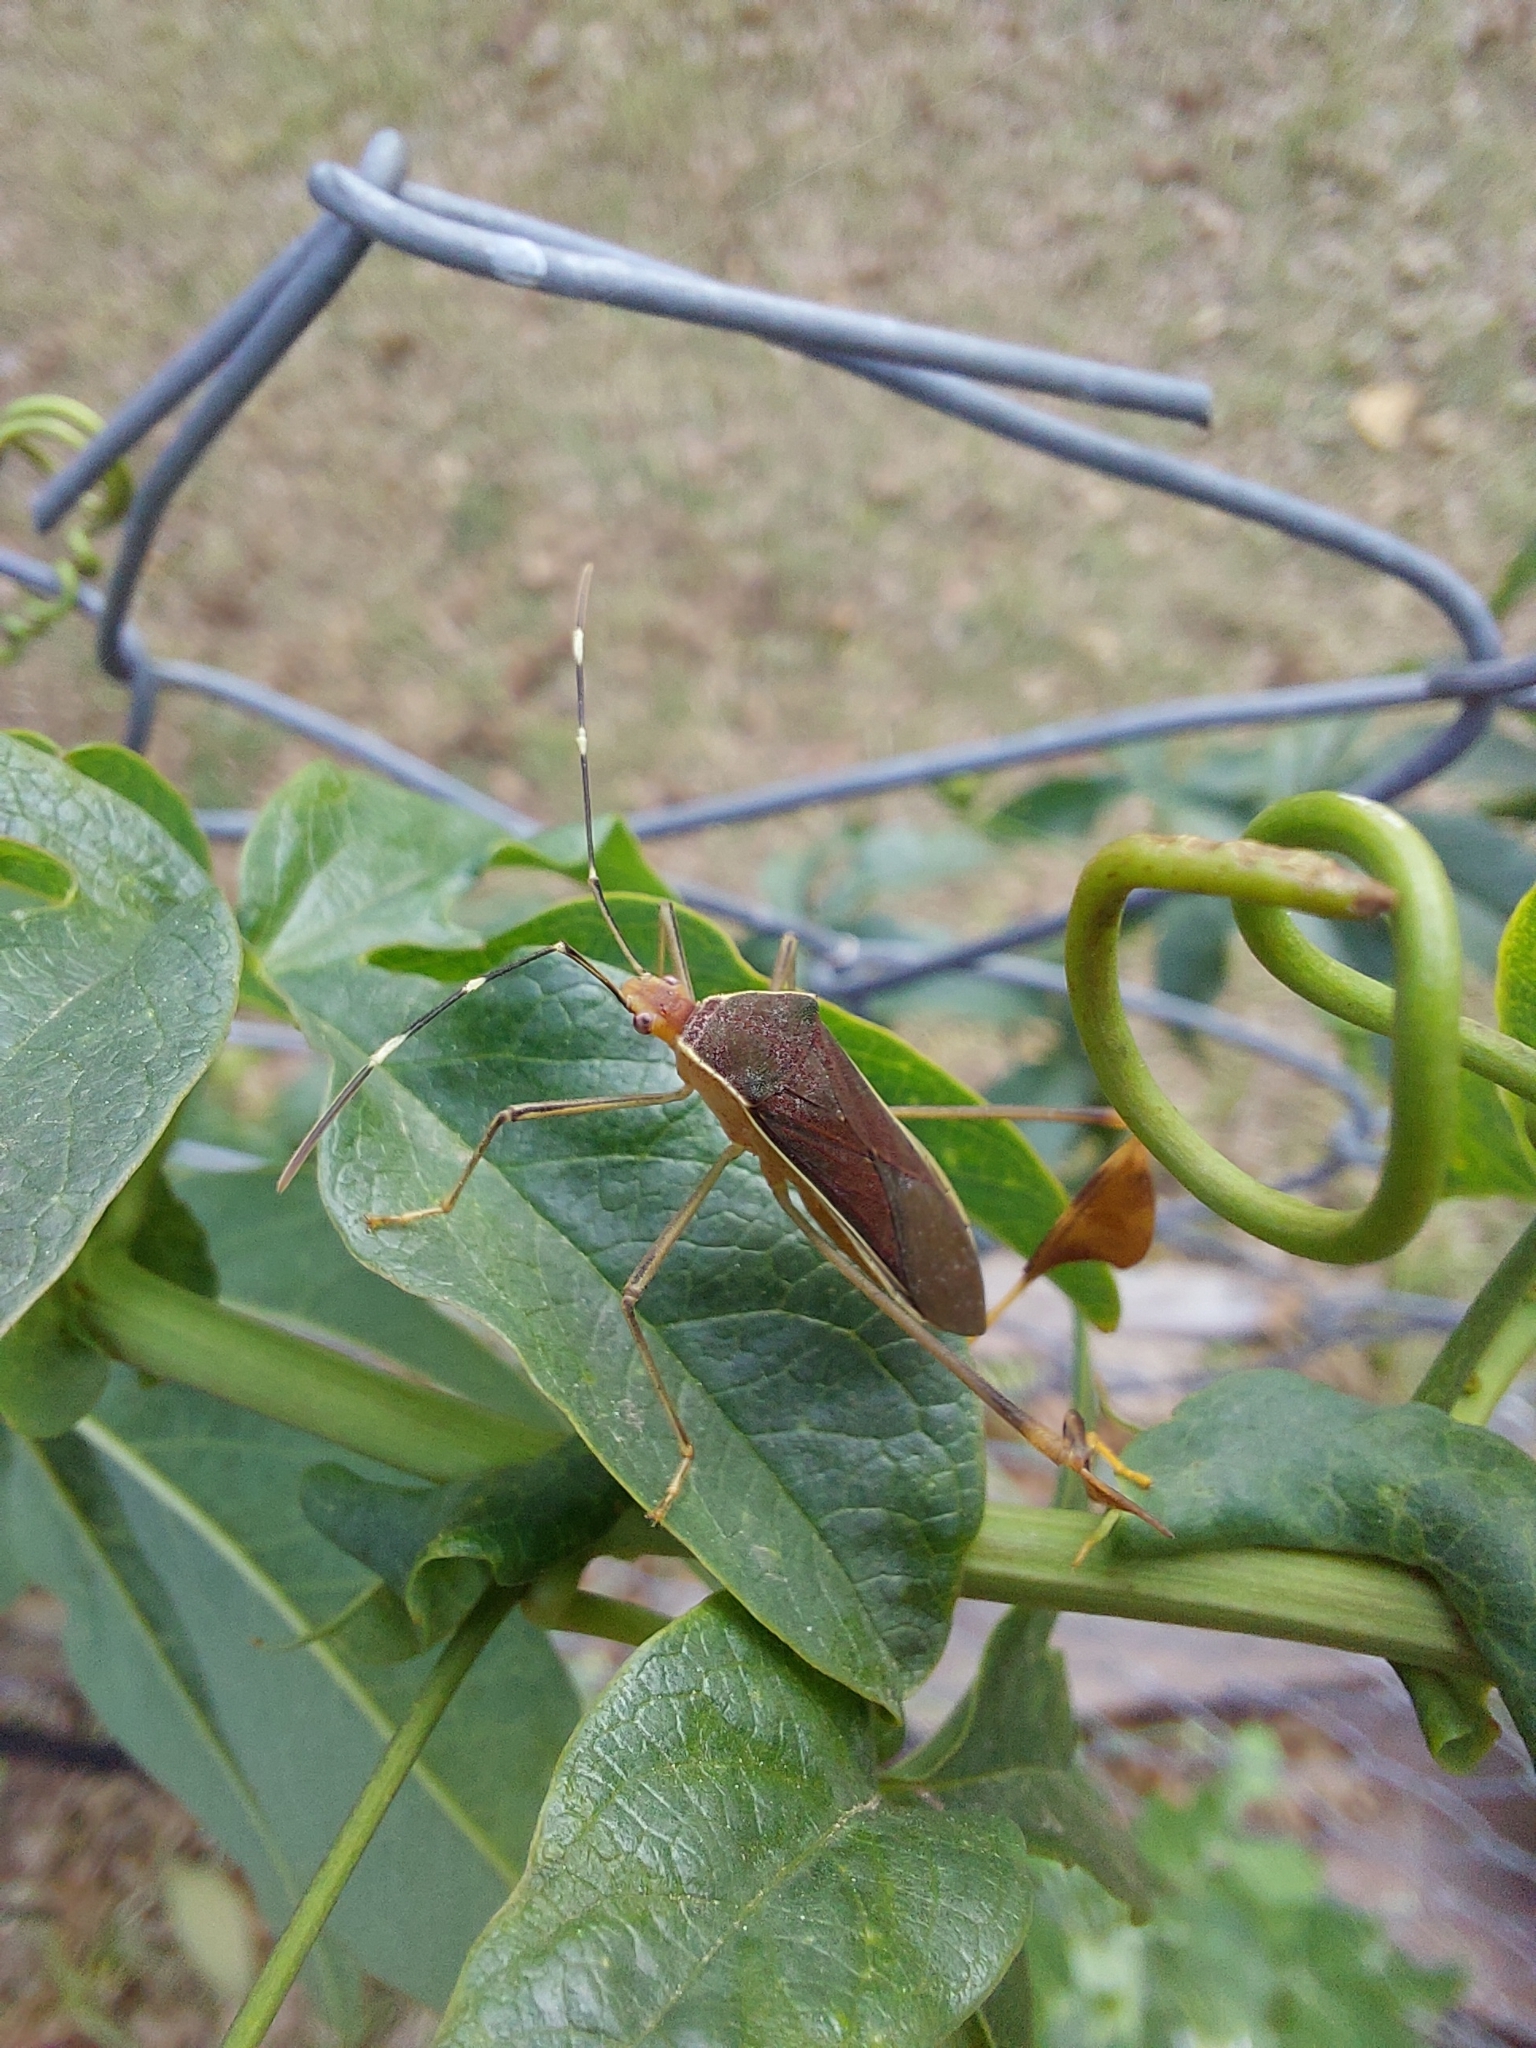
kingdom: Animalia
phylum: Arthropoda
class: Insecta
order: Hemiptera
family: Coreidae
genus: Anisoscelis
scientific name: Anisoscelis marginellus
